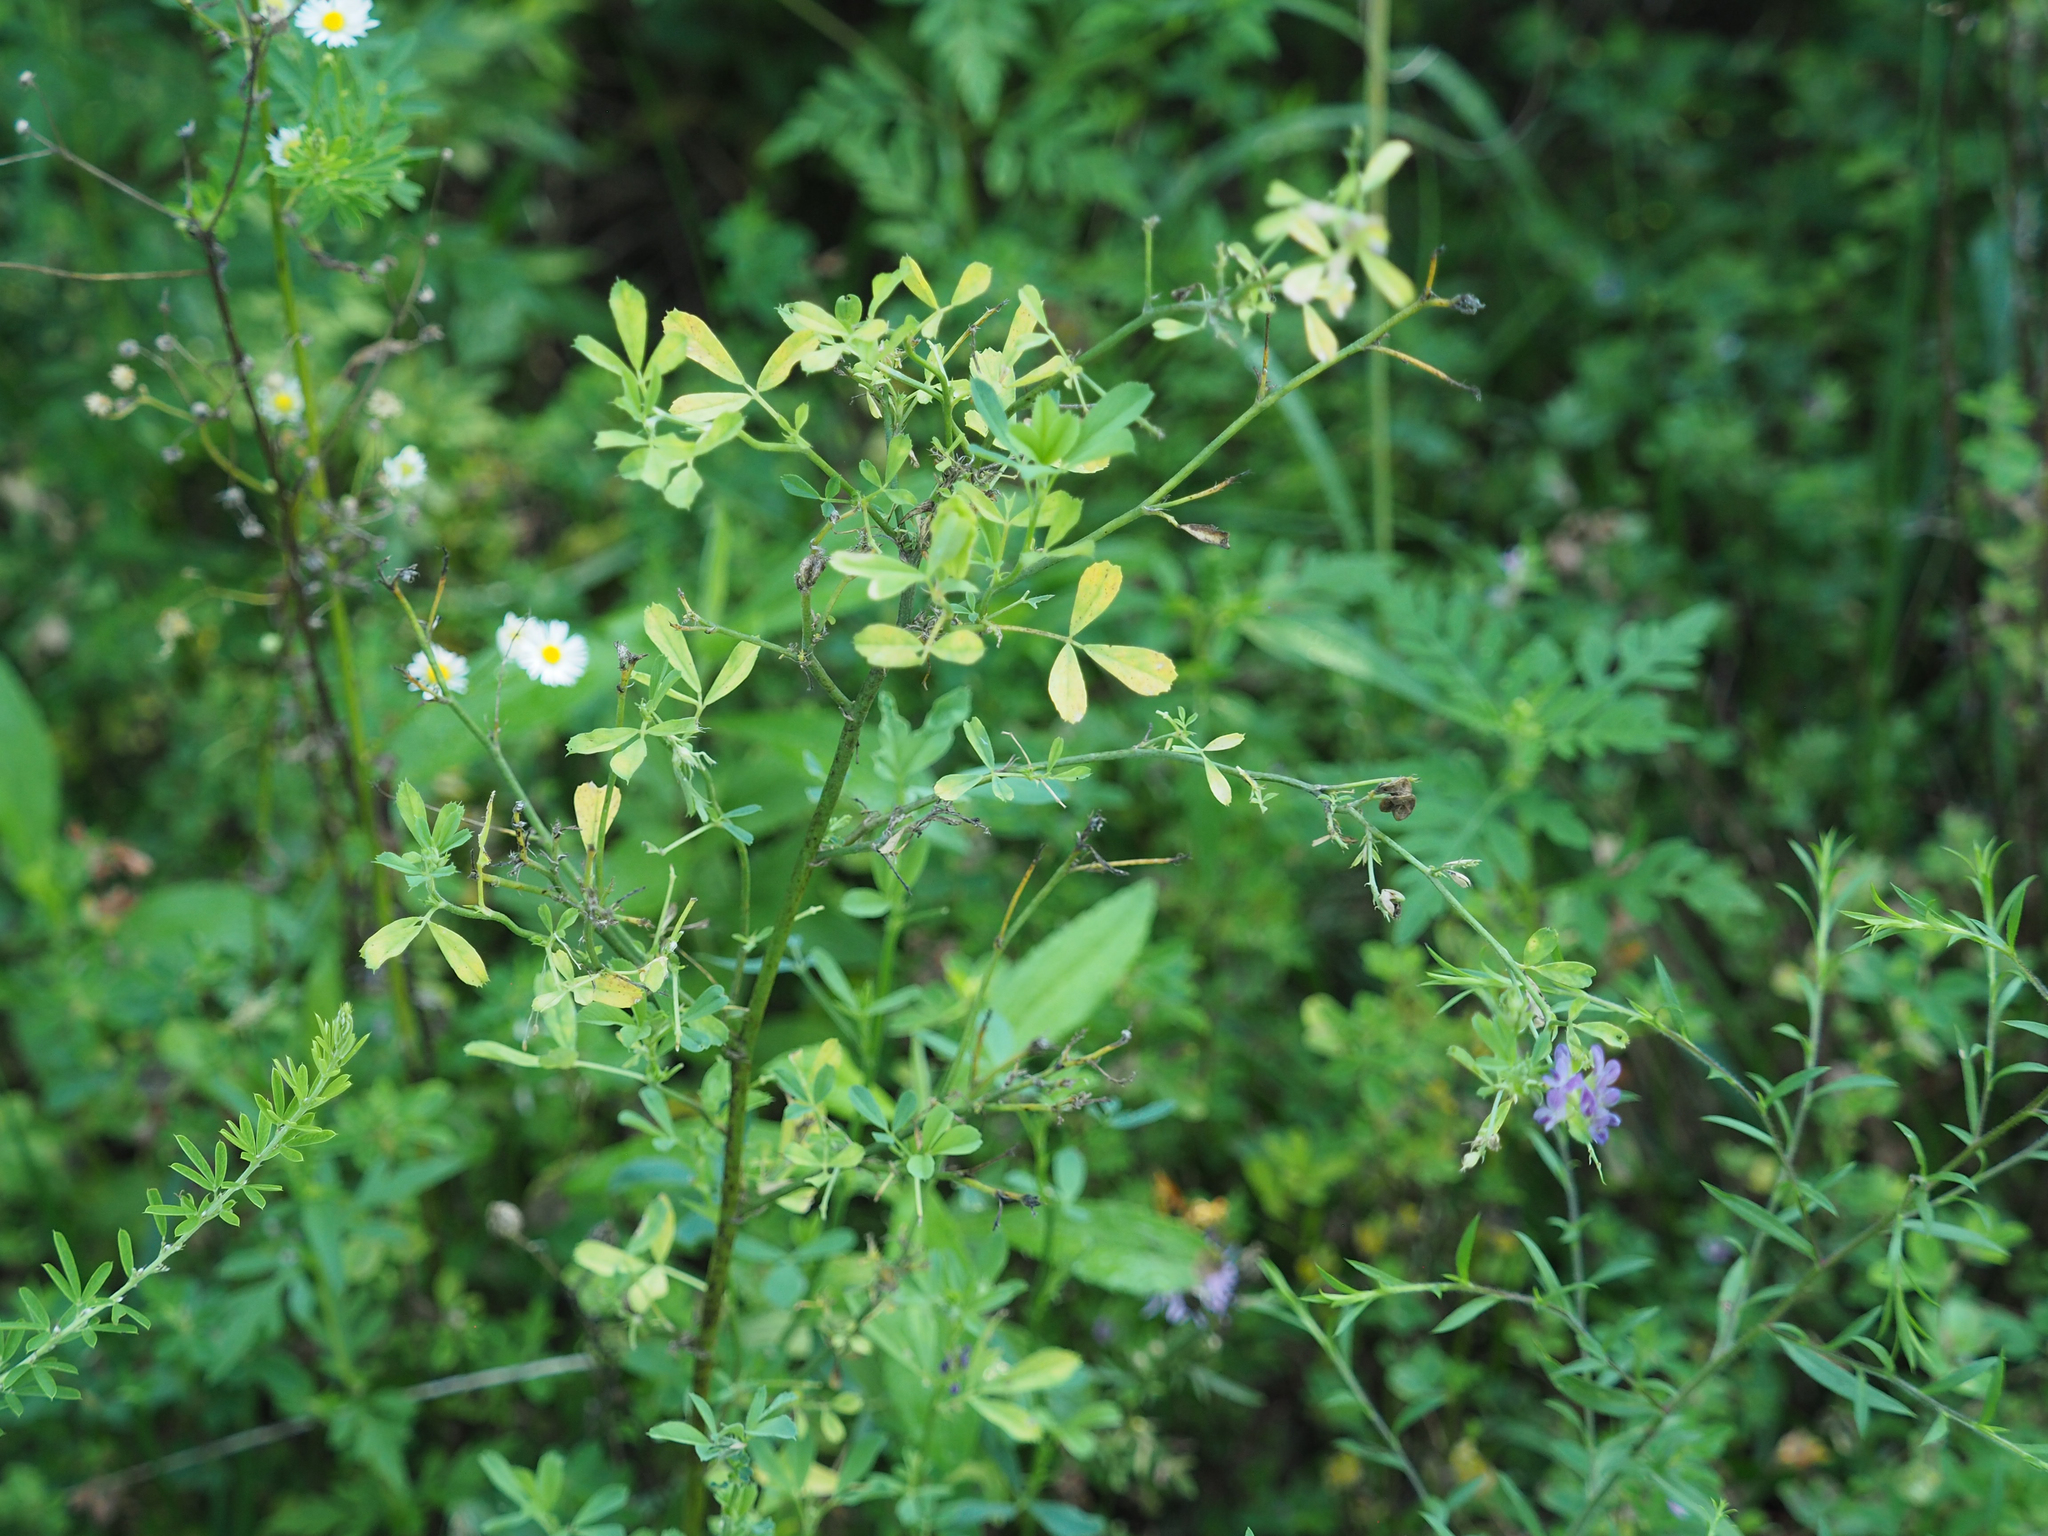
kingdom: Plantae
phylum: Tracheophyta
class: Magnoliopsida
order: Fabales
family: Fabaceae
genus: Medicago
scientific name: Medicago sativa
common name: Alfalfa
